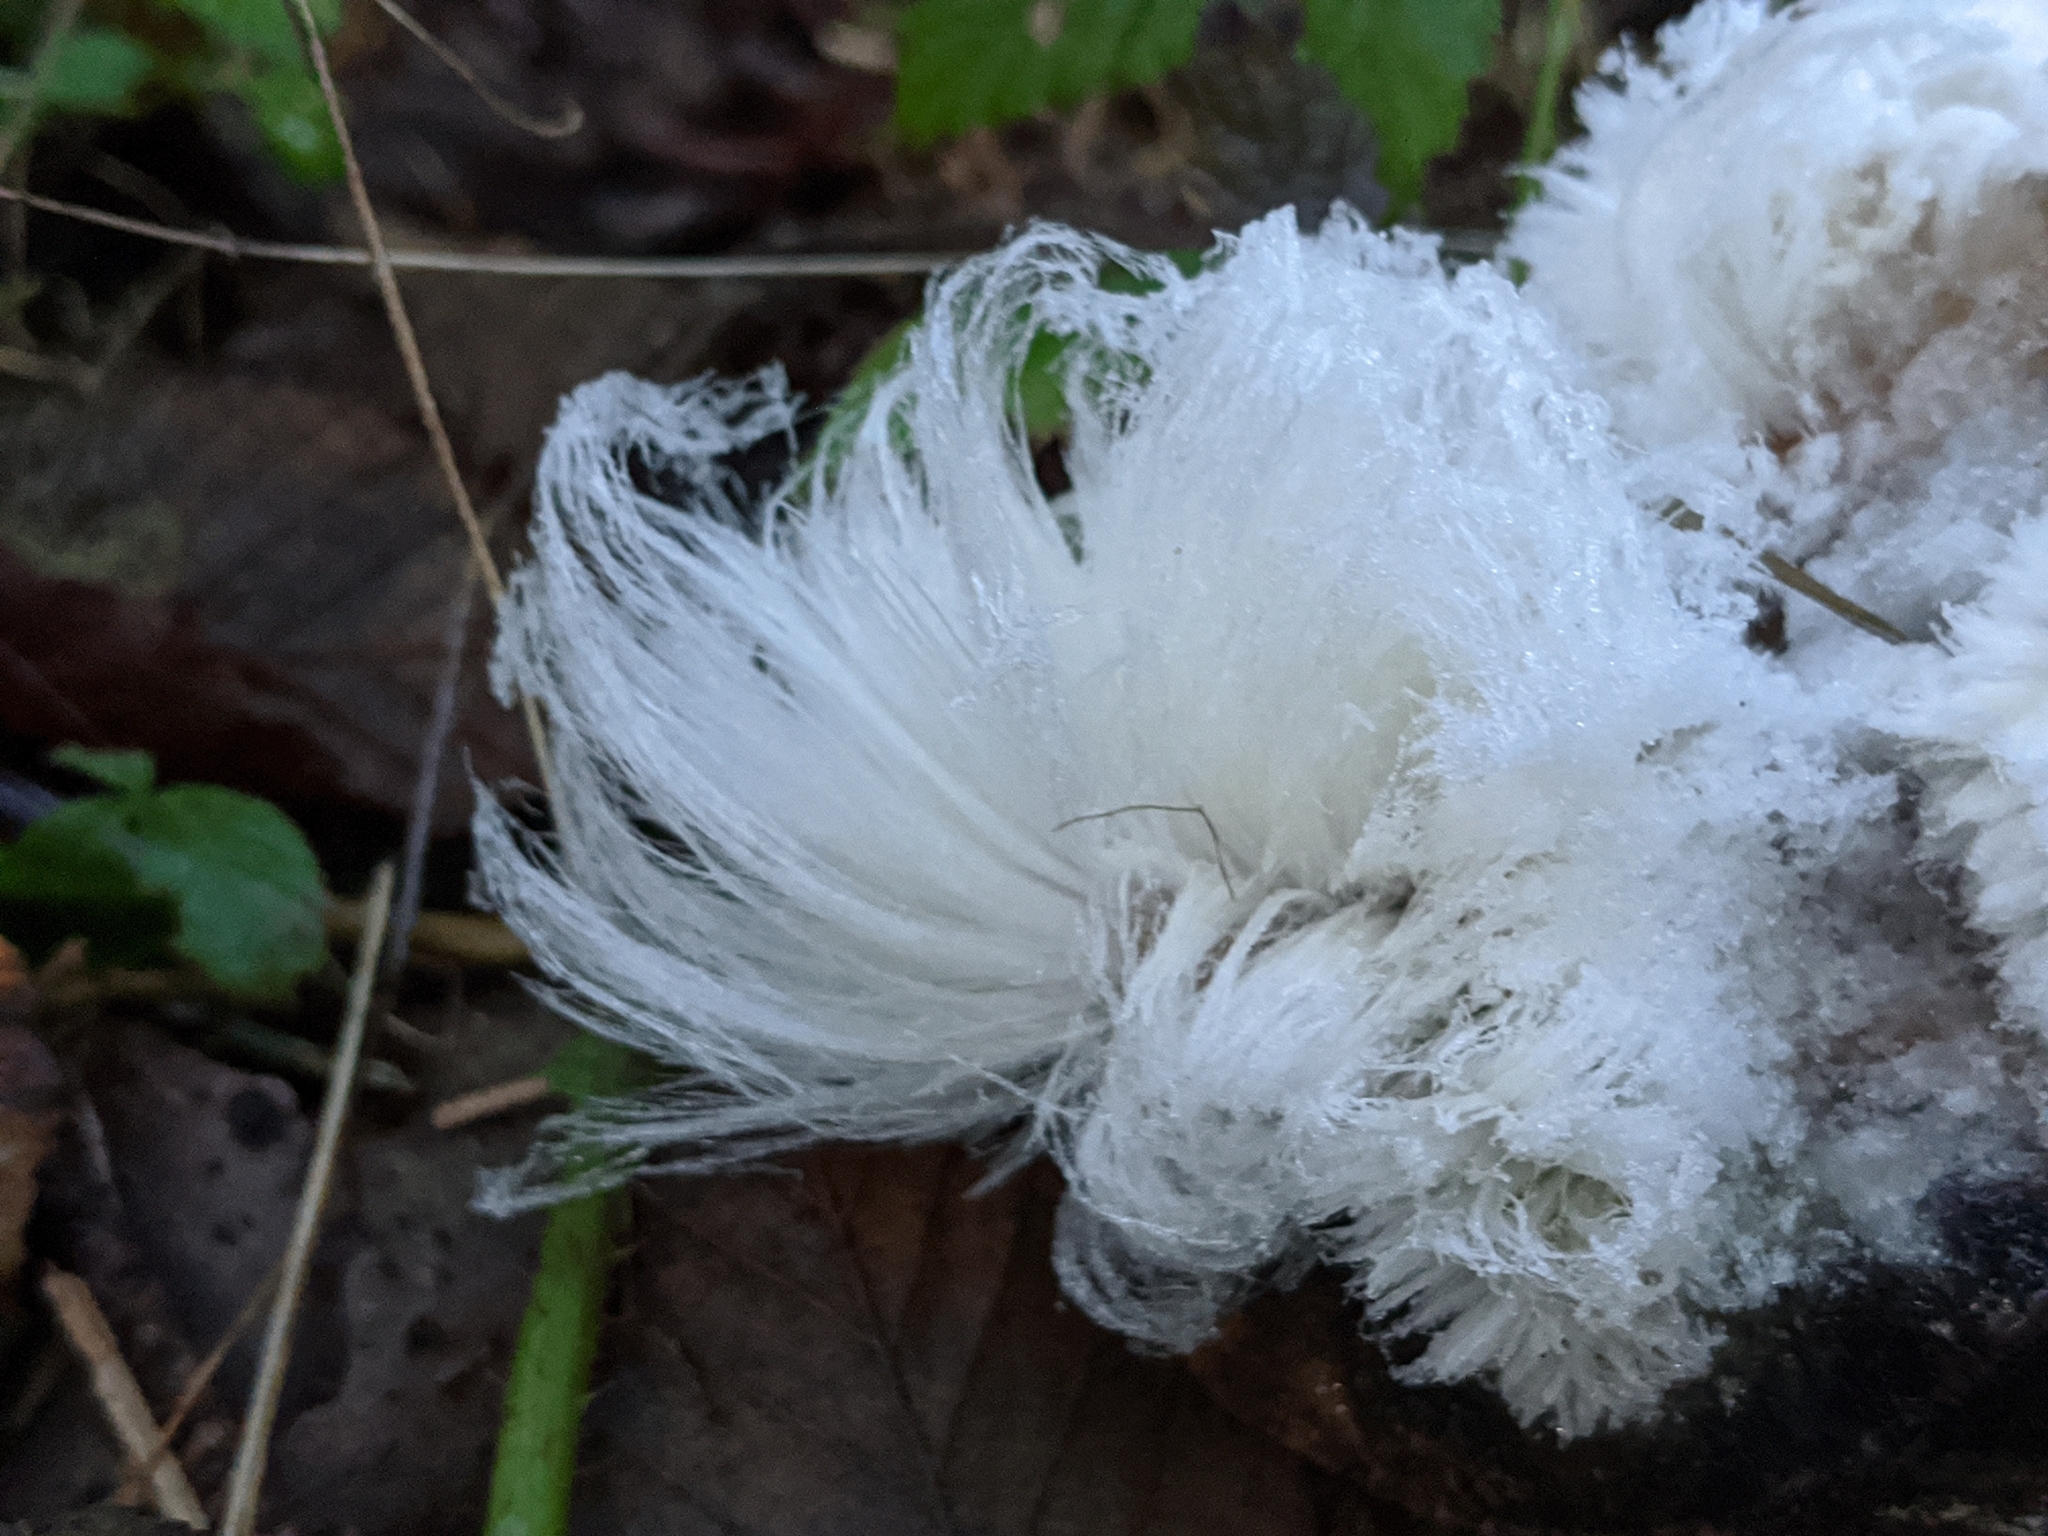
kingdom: Fungi
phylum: Basidiomycota
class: Agaricomycetes
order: Auriculariales
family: Auriculariaceae
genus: Exidiopsis
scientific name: Exidiopsis effusa
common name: Hair ice crust
